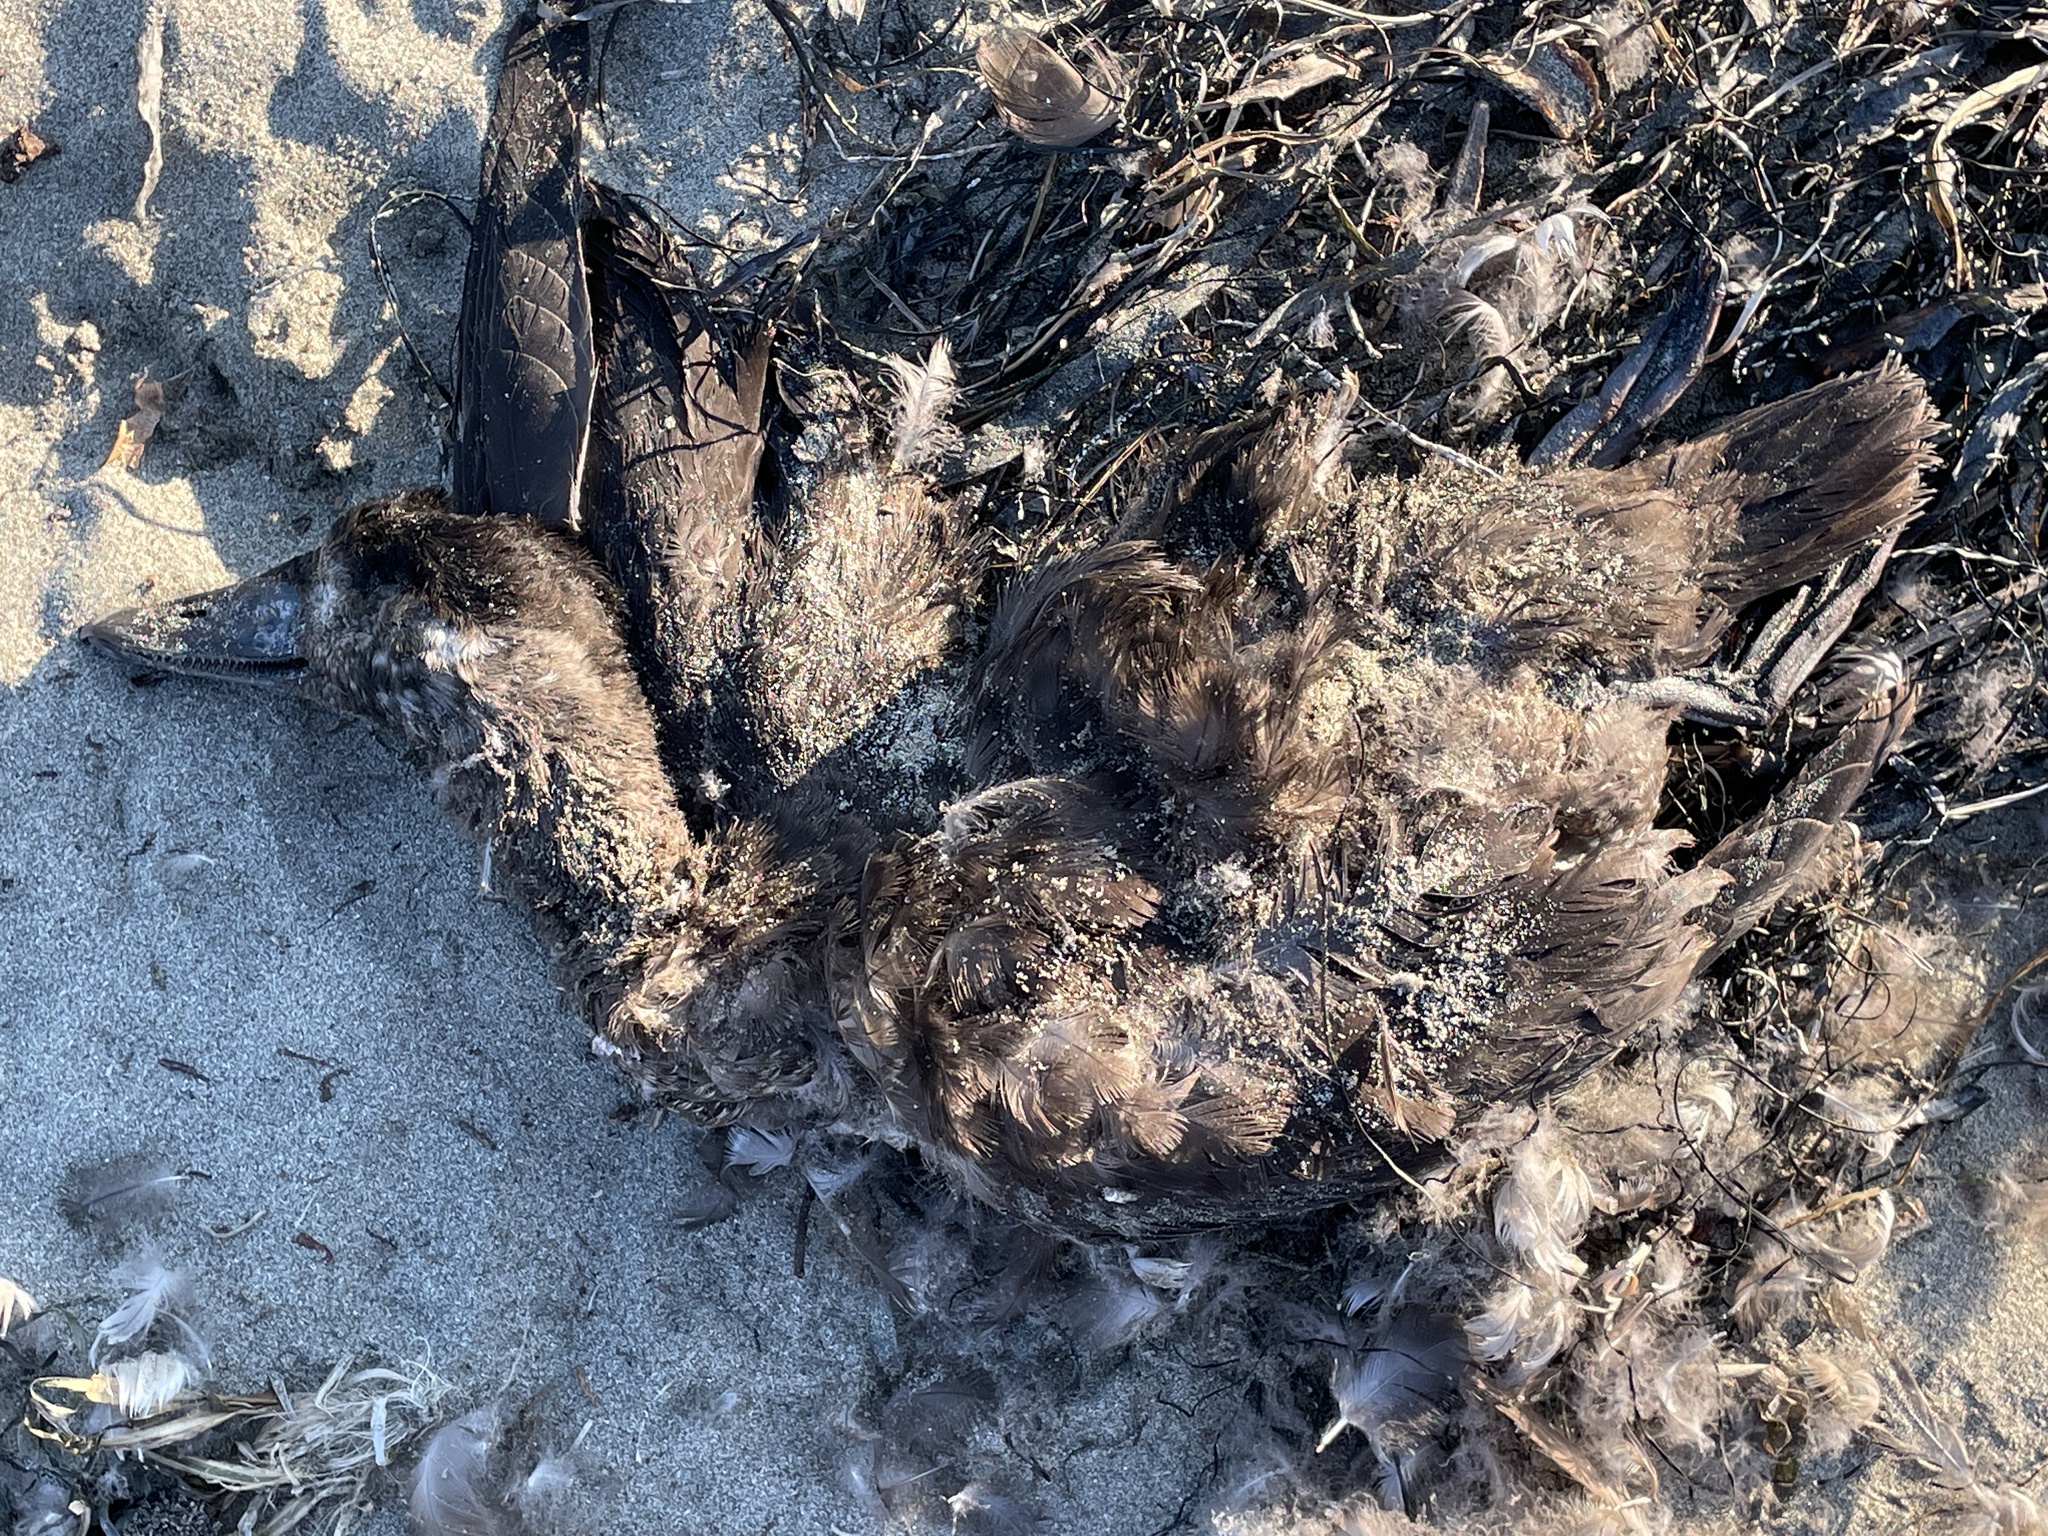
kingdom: Animalia
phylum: Chordata
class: Aves
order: Anseriformes
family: Anatidae
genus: Melanitta
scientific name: Melanitta perspicillata
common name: Surf scoter
